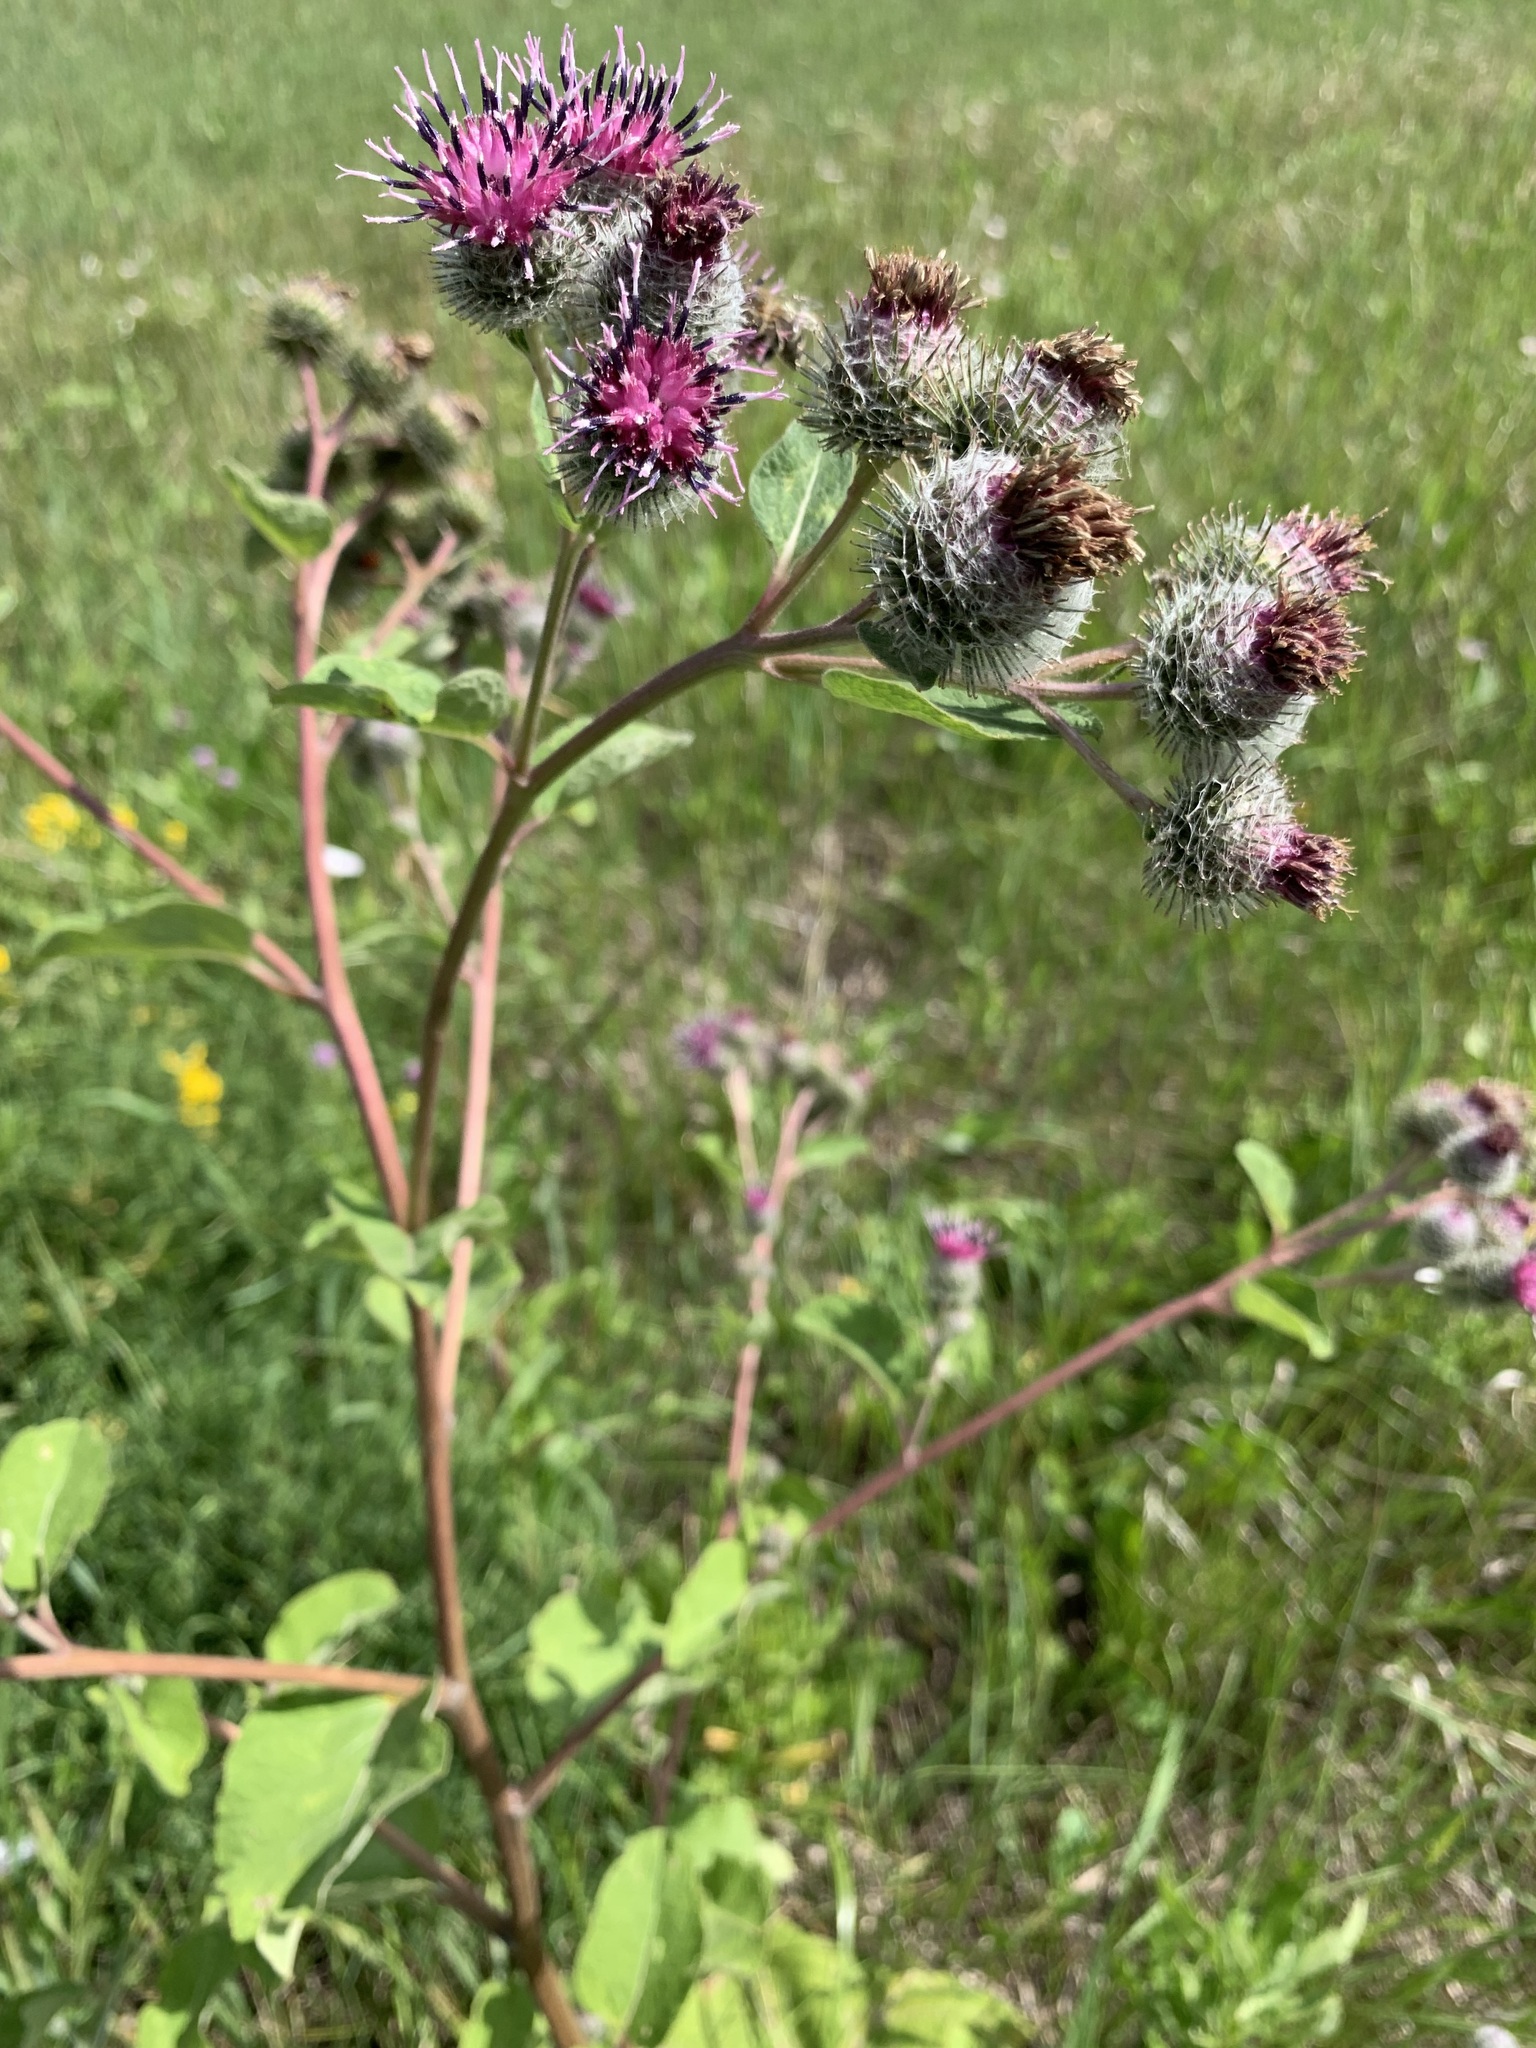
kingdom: Plantae
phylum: Tracheophyta
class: Magnoliopsida
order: Asterales
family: Asteraceae
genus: Arctium
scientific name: Arctium tomentosum
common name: Woolly burdock
